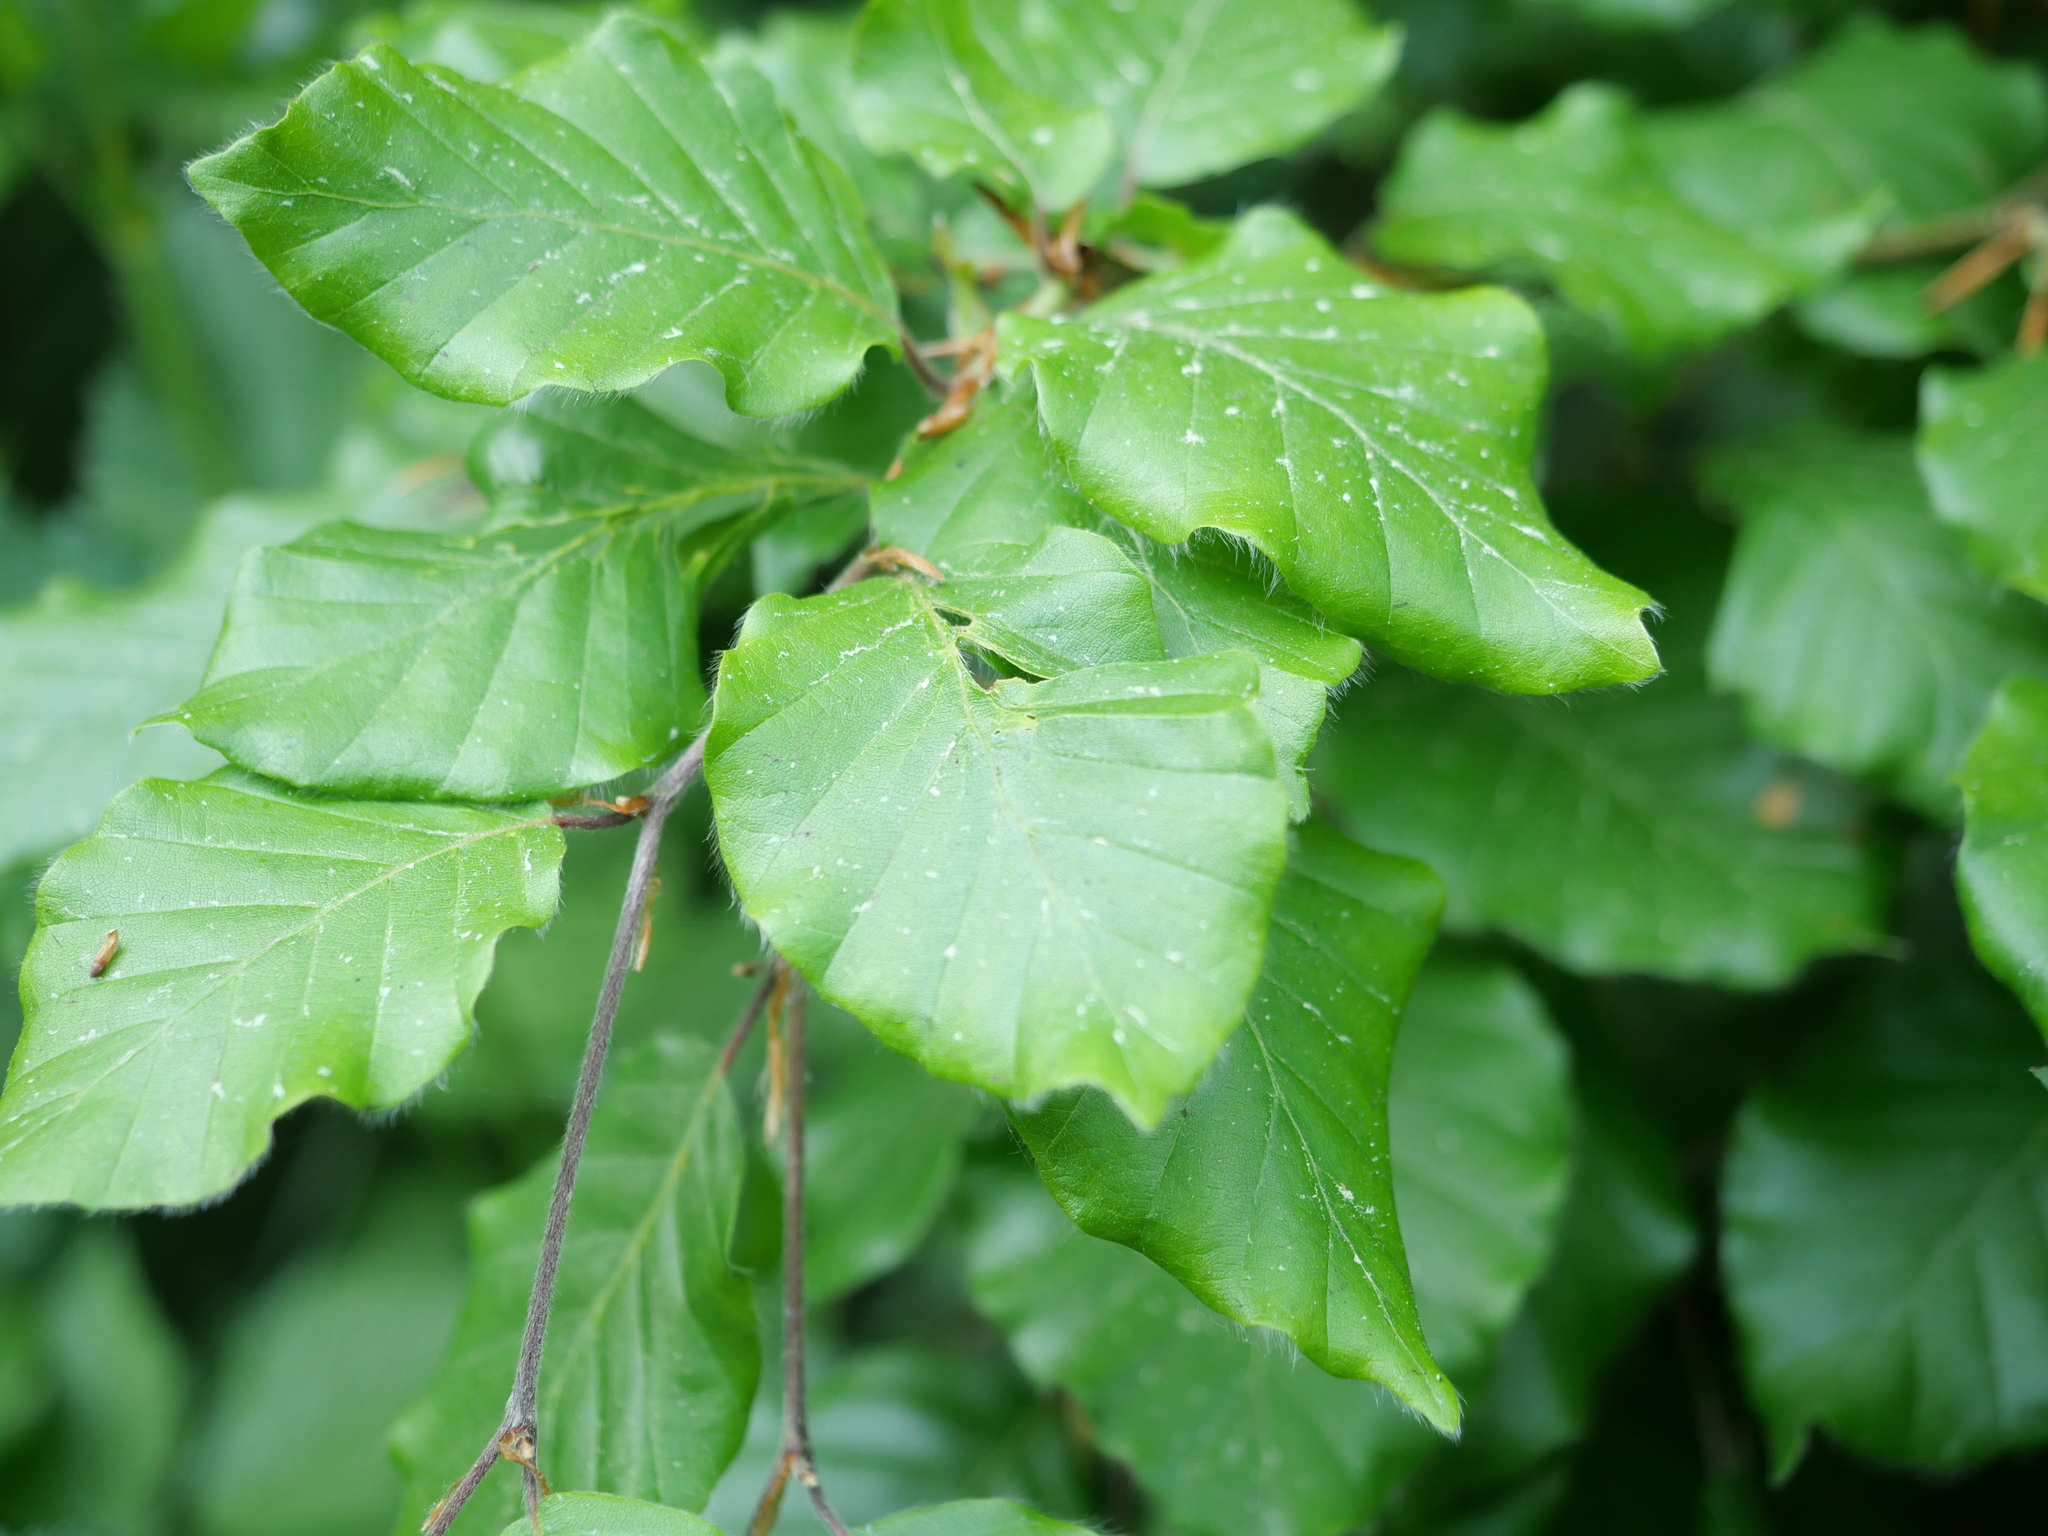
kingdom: Plantae
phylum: Tracheophyta
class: Magnoliopsida
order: Fagales
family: Fagaceae
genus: Fagus
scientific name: Fagus sylvatica
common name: Beech
